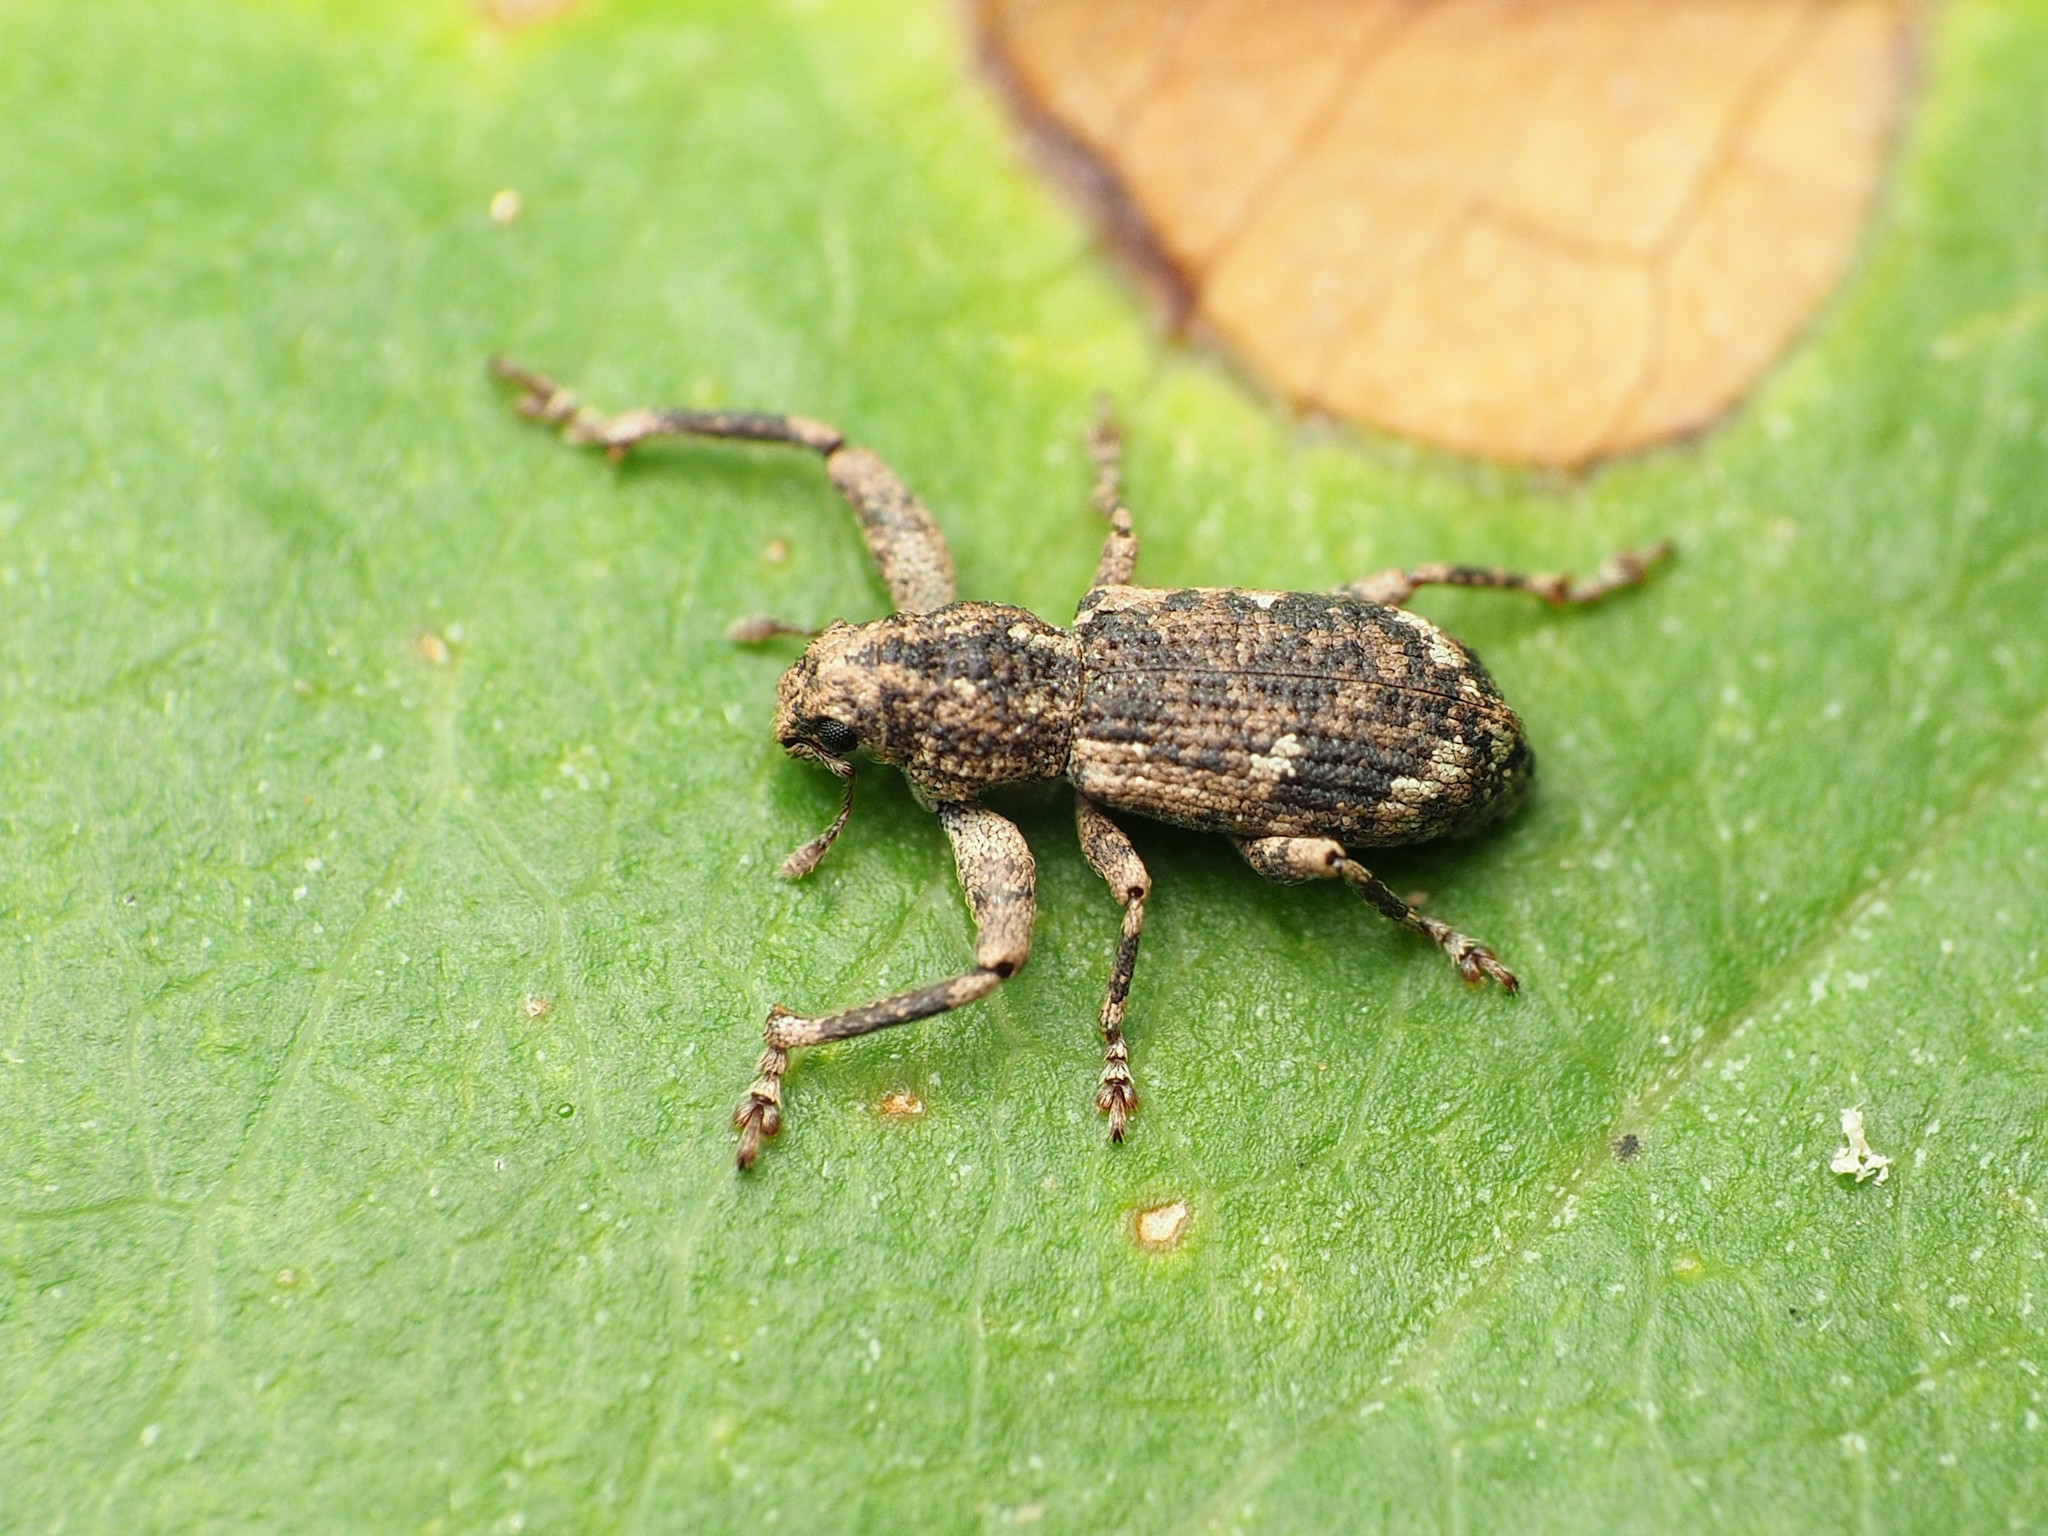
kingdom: Animalia
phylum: Arthropoda
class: Insecta
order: Coleoptera
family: Curculionidae
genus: Pandeleteius
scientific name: Pandeleteius hilaris
